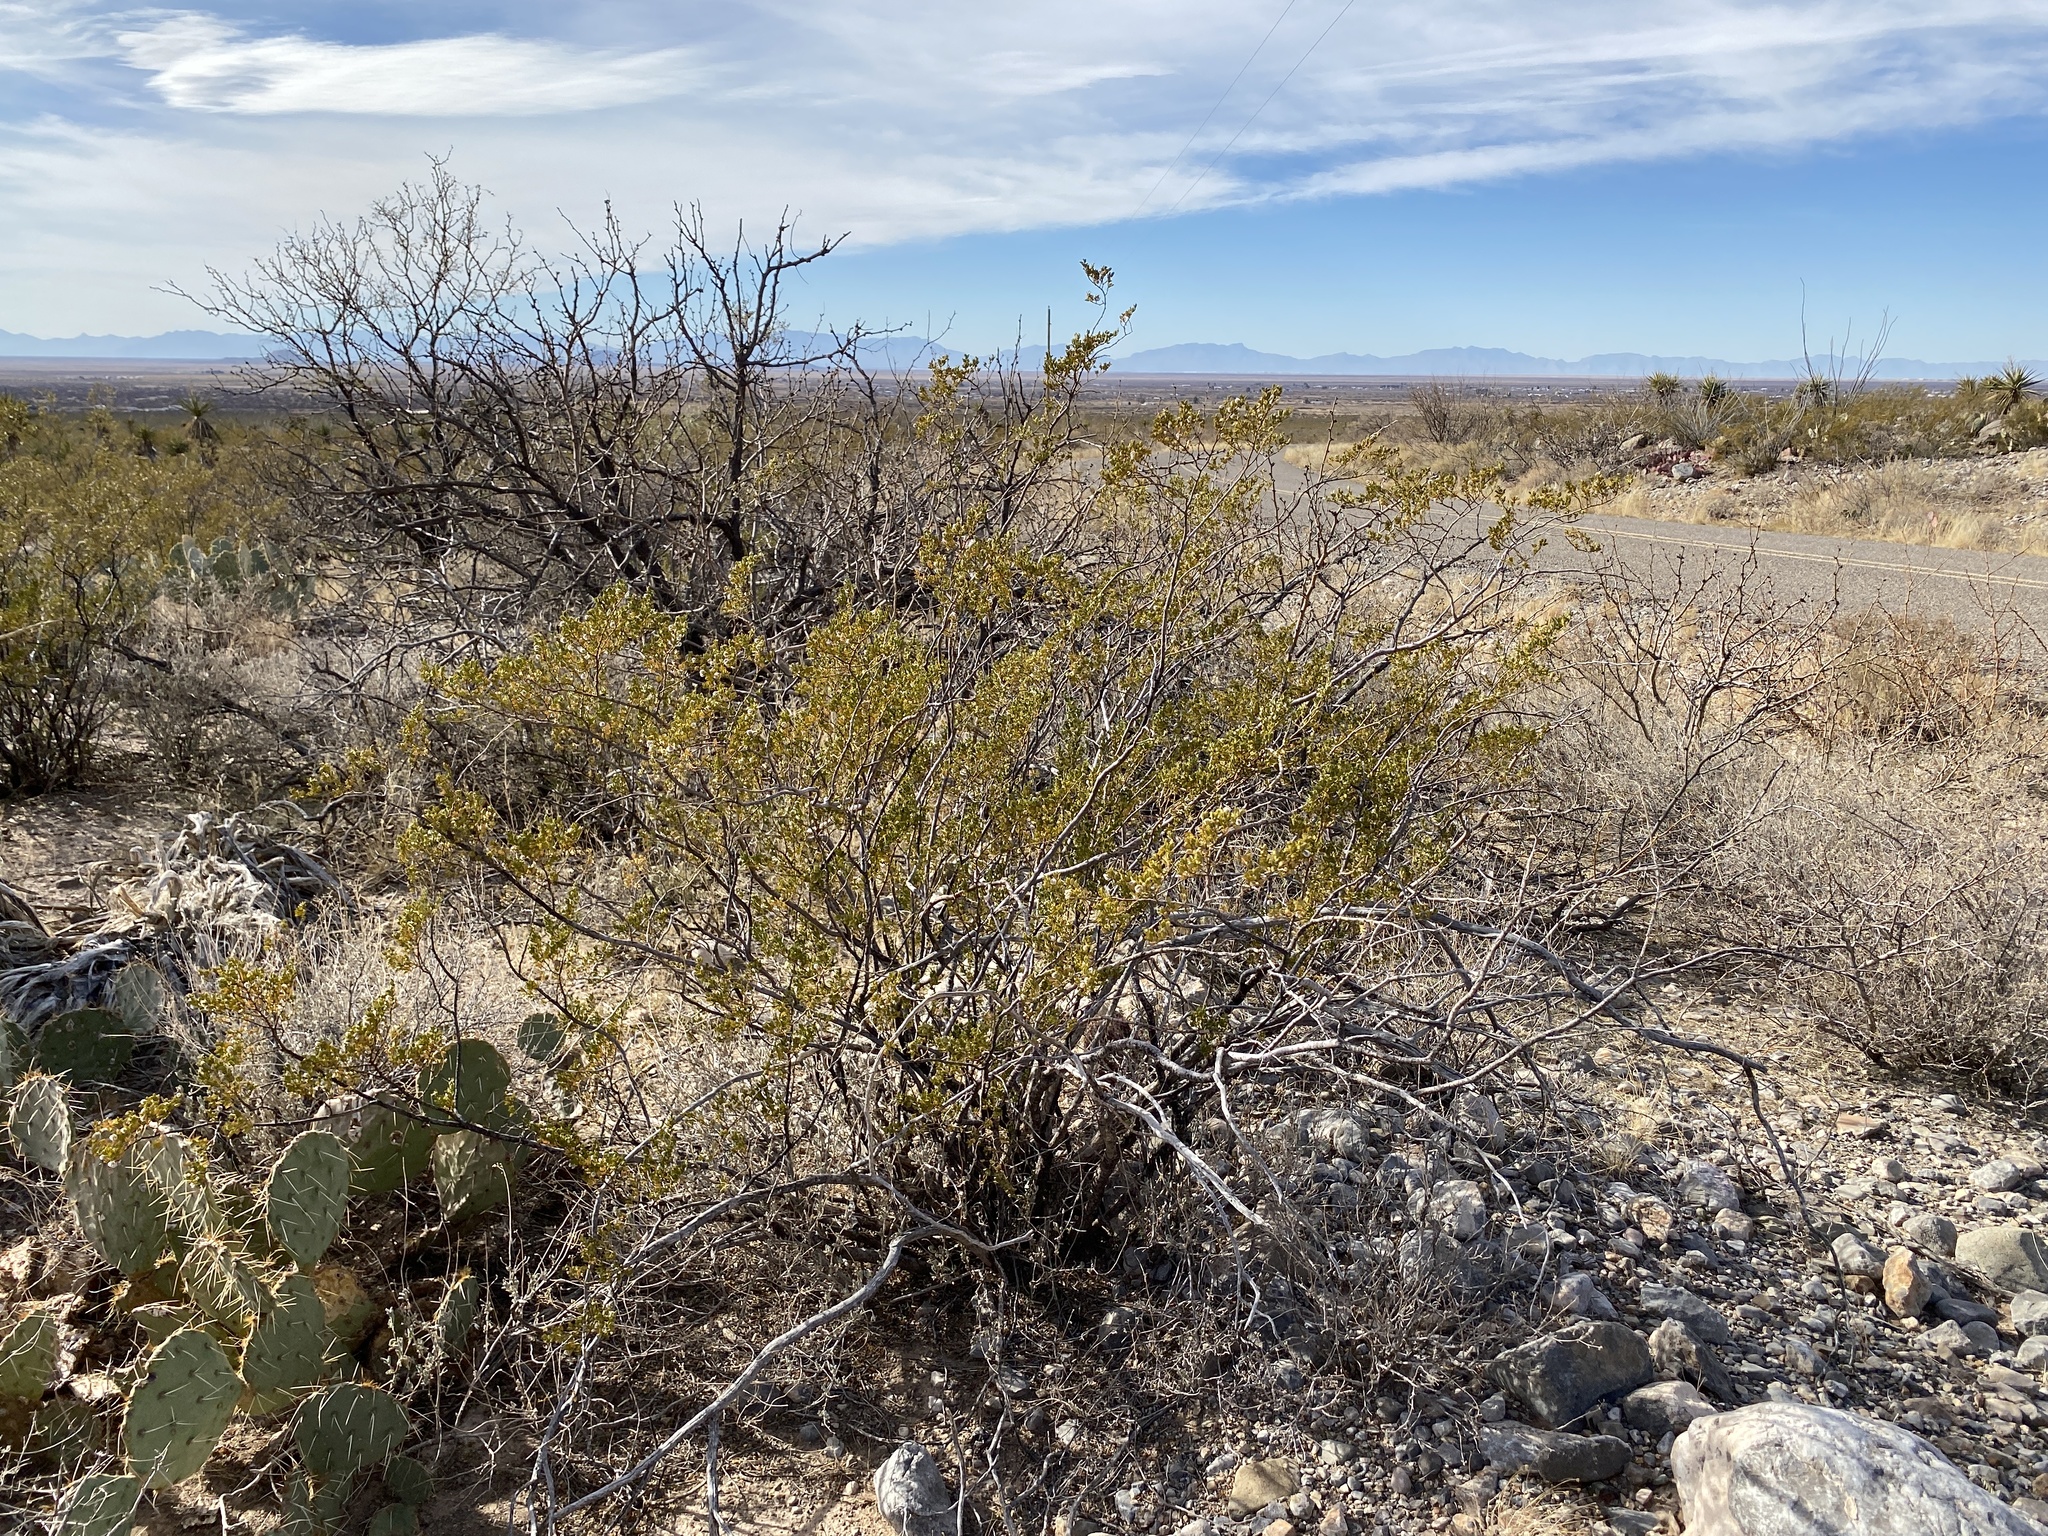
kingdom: Plantae
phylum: Tracheophyta
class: Magnoliopsida
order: Zygophyllales
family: Zygophyllaceae
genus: Larrea
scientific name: Larrea tridentata
